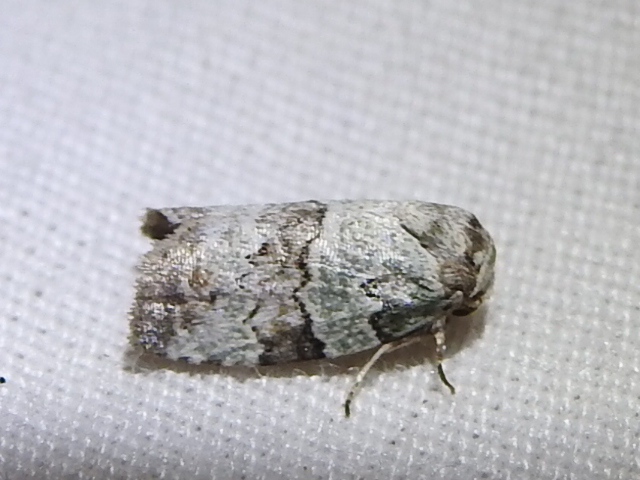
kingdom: Animalia
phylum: Arthropoda
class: Insecta
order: Lepidoptera
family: Nolidae
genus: Afrida
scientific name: Afrida ydatodes
